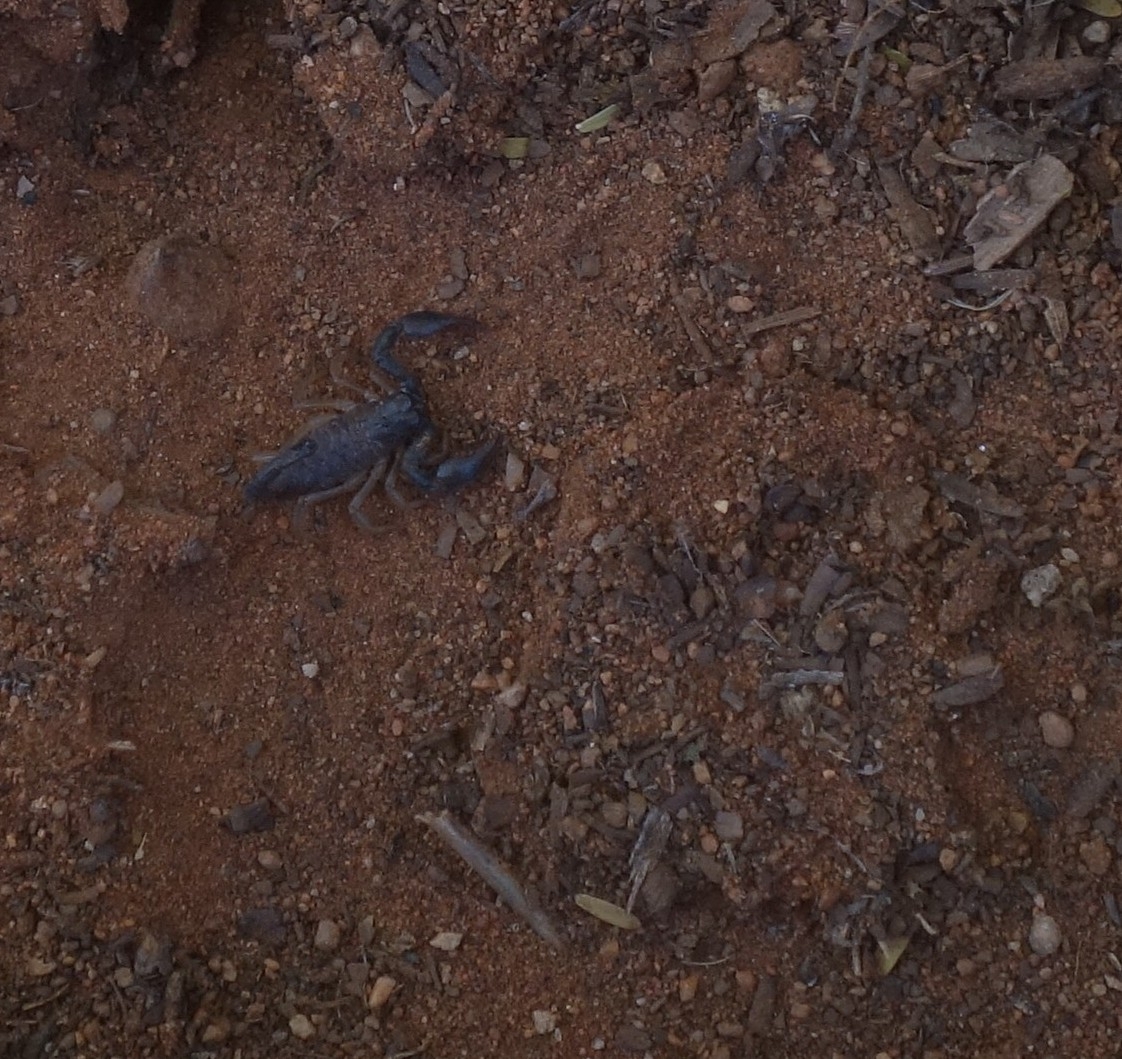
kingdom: Animalia
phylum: Arthropoda
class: Arachnida
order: Scorpiones
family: Scorpionidae
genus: Opistophthalmus
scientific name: Opistophthalmus opinatus
